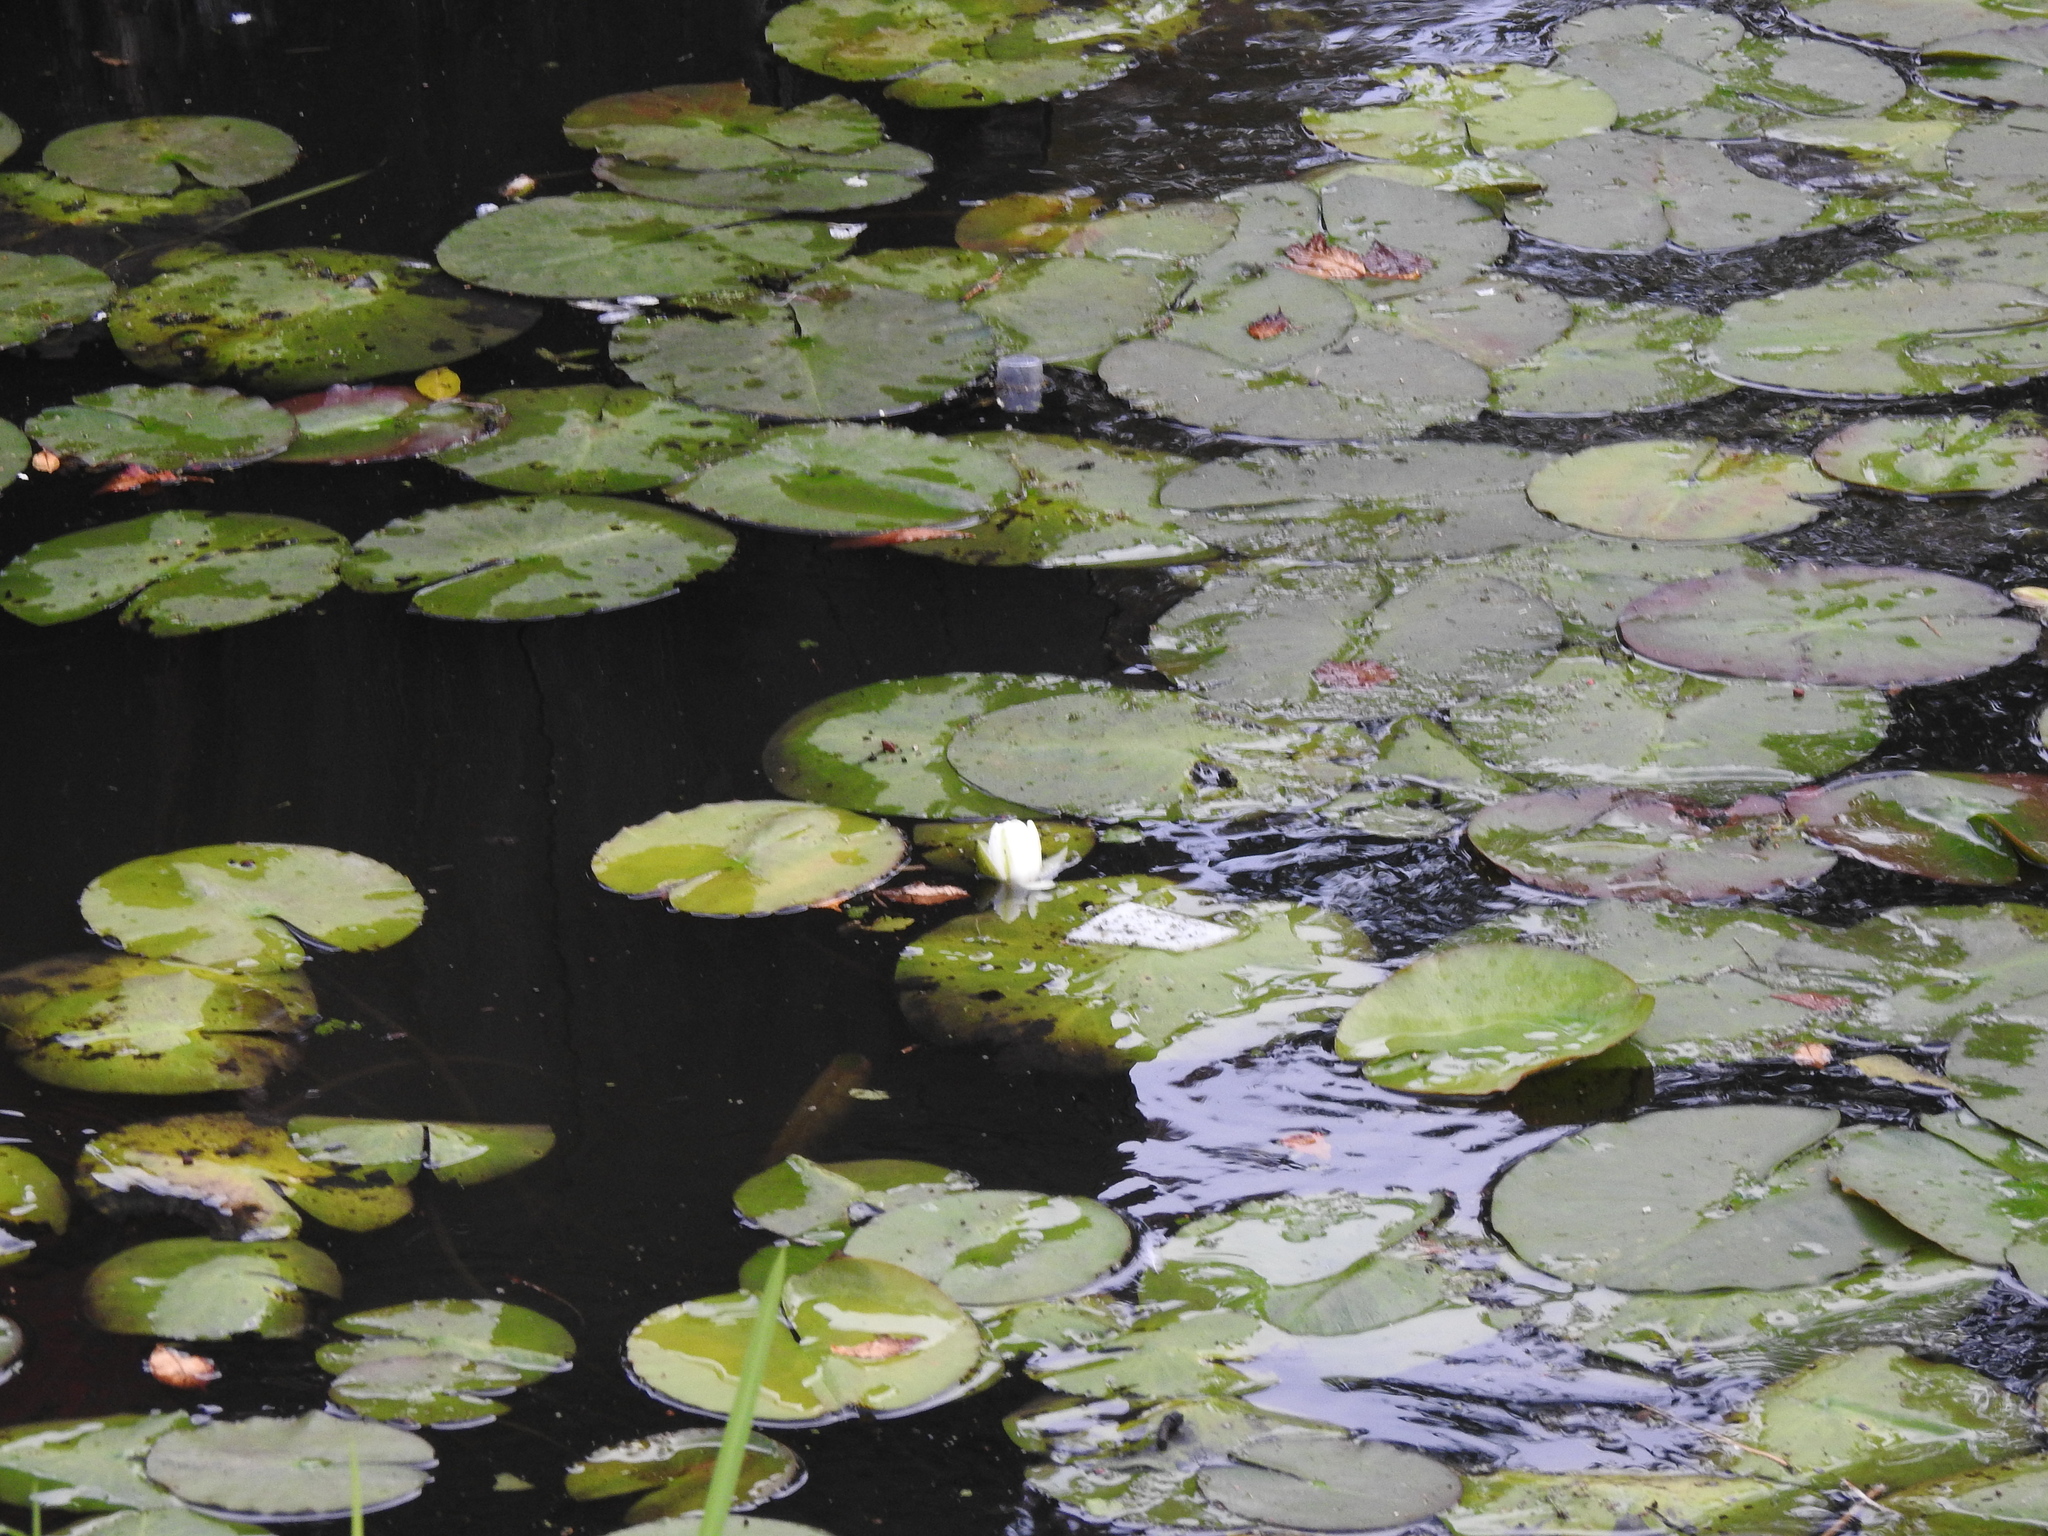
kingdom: Plantae
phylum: Tracheophyta
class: Magnoliopsida
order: Nymphaeales
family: Nymphaeaceae
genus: Nymphaea
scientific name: Nymphaea alba
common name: White water-lily
